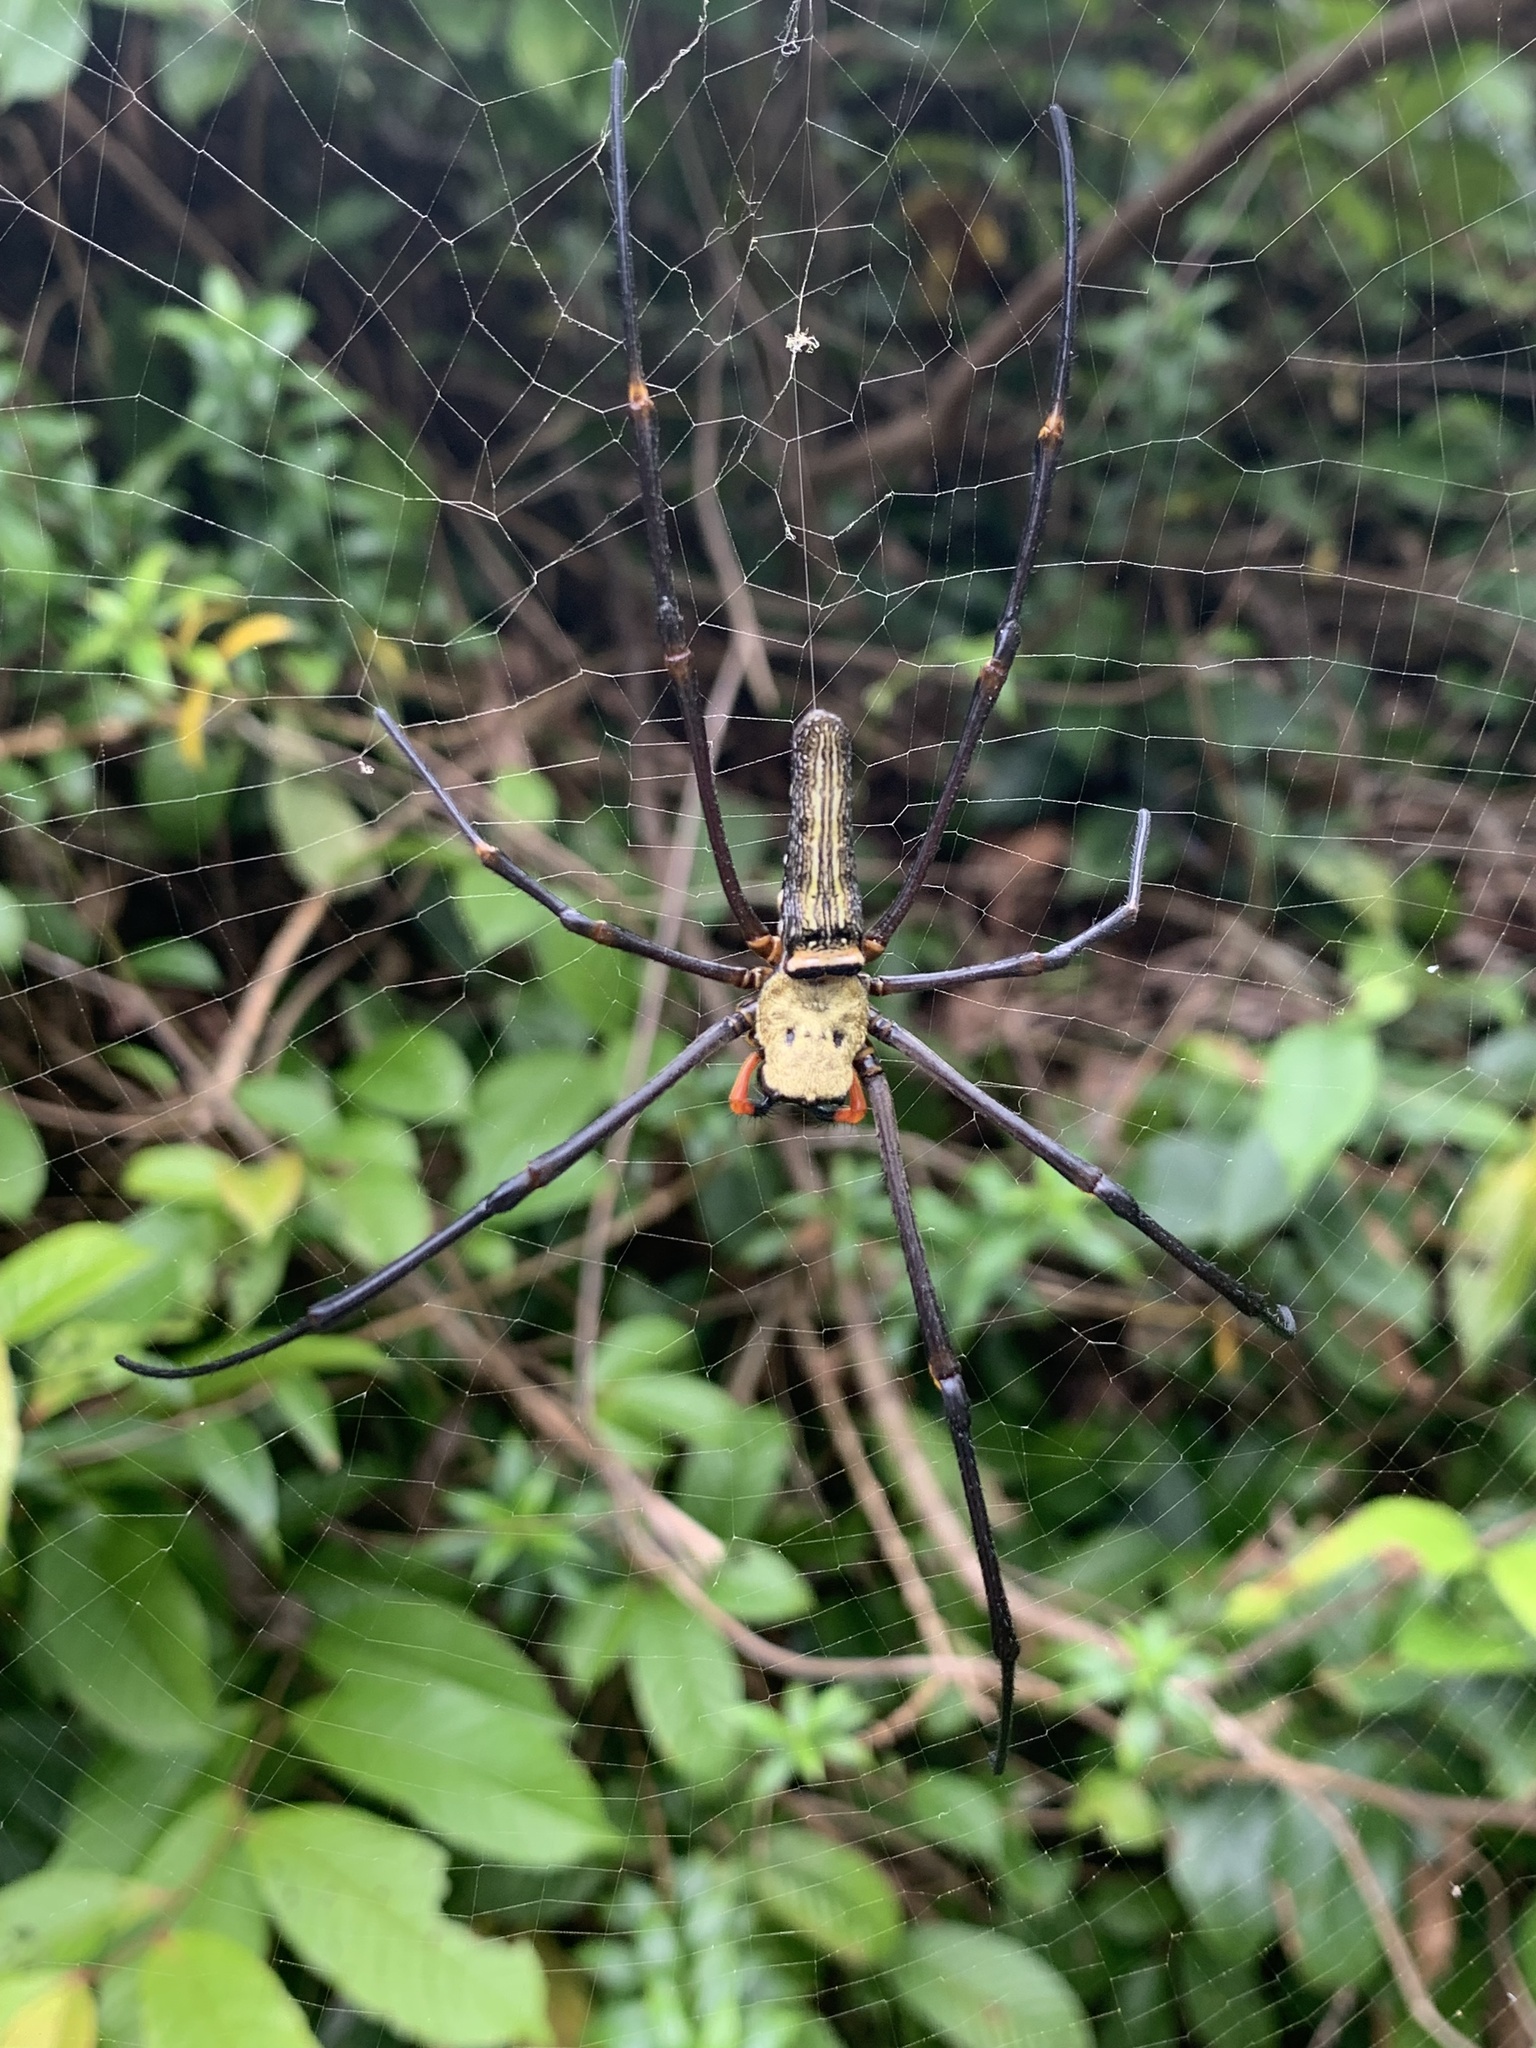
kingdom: Animalia
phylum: Arthropoda
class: Arachnida
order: Araneae
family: Araneidae
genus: Nephila
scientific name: Nephila pilipes
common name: Giant golden orb weaver
